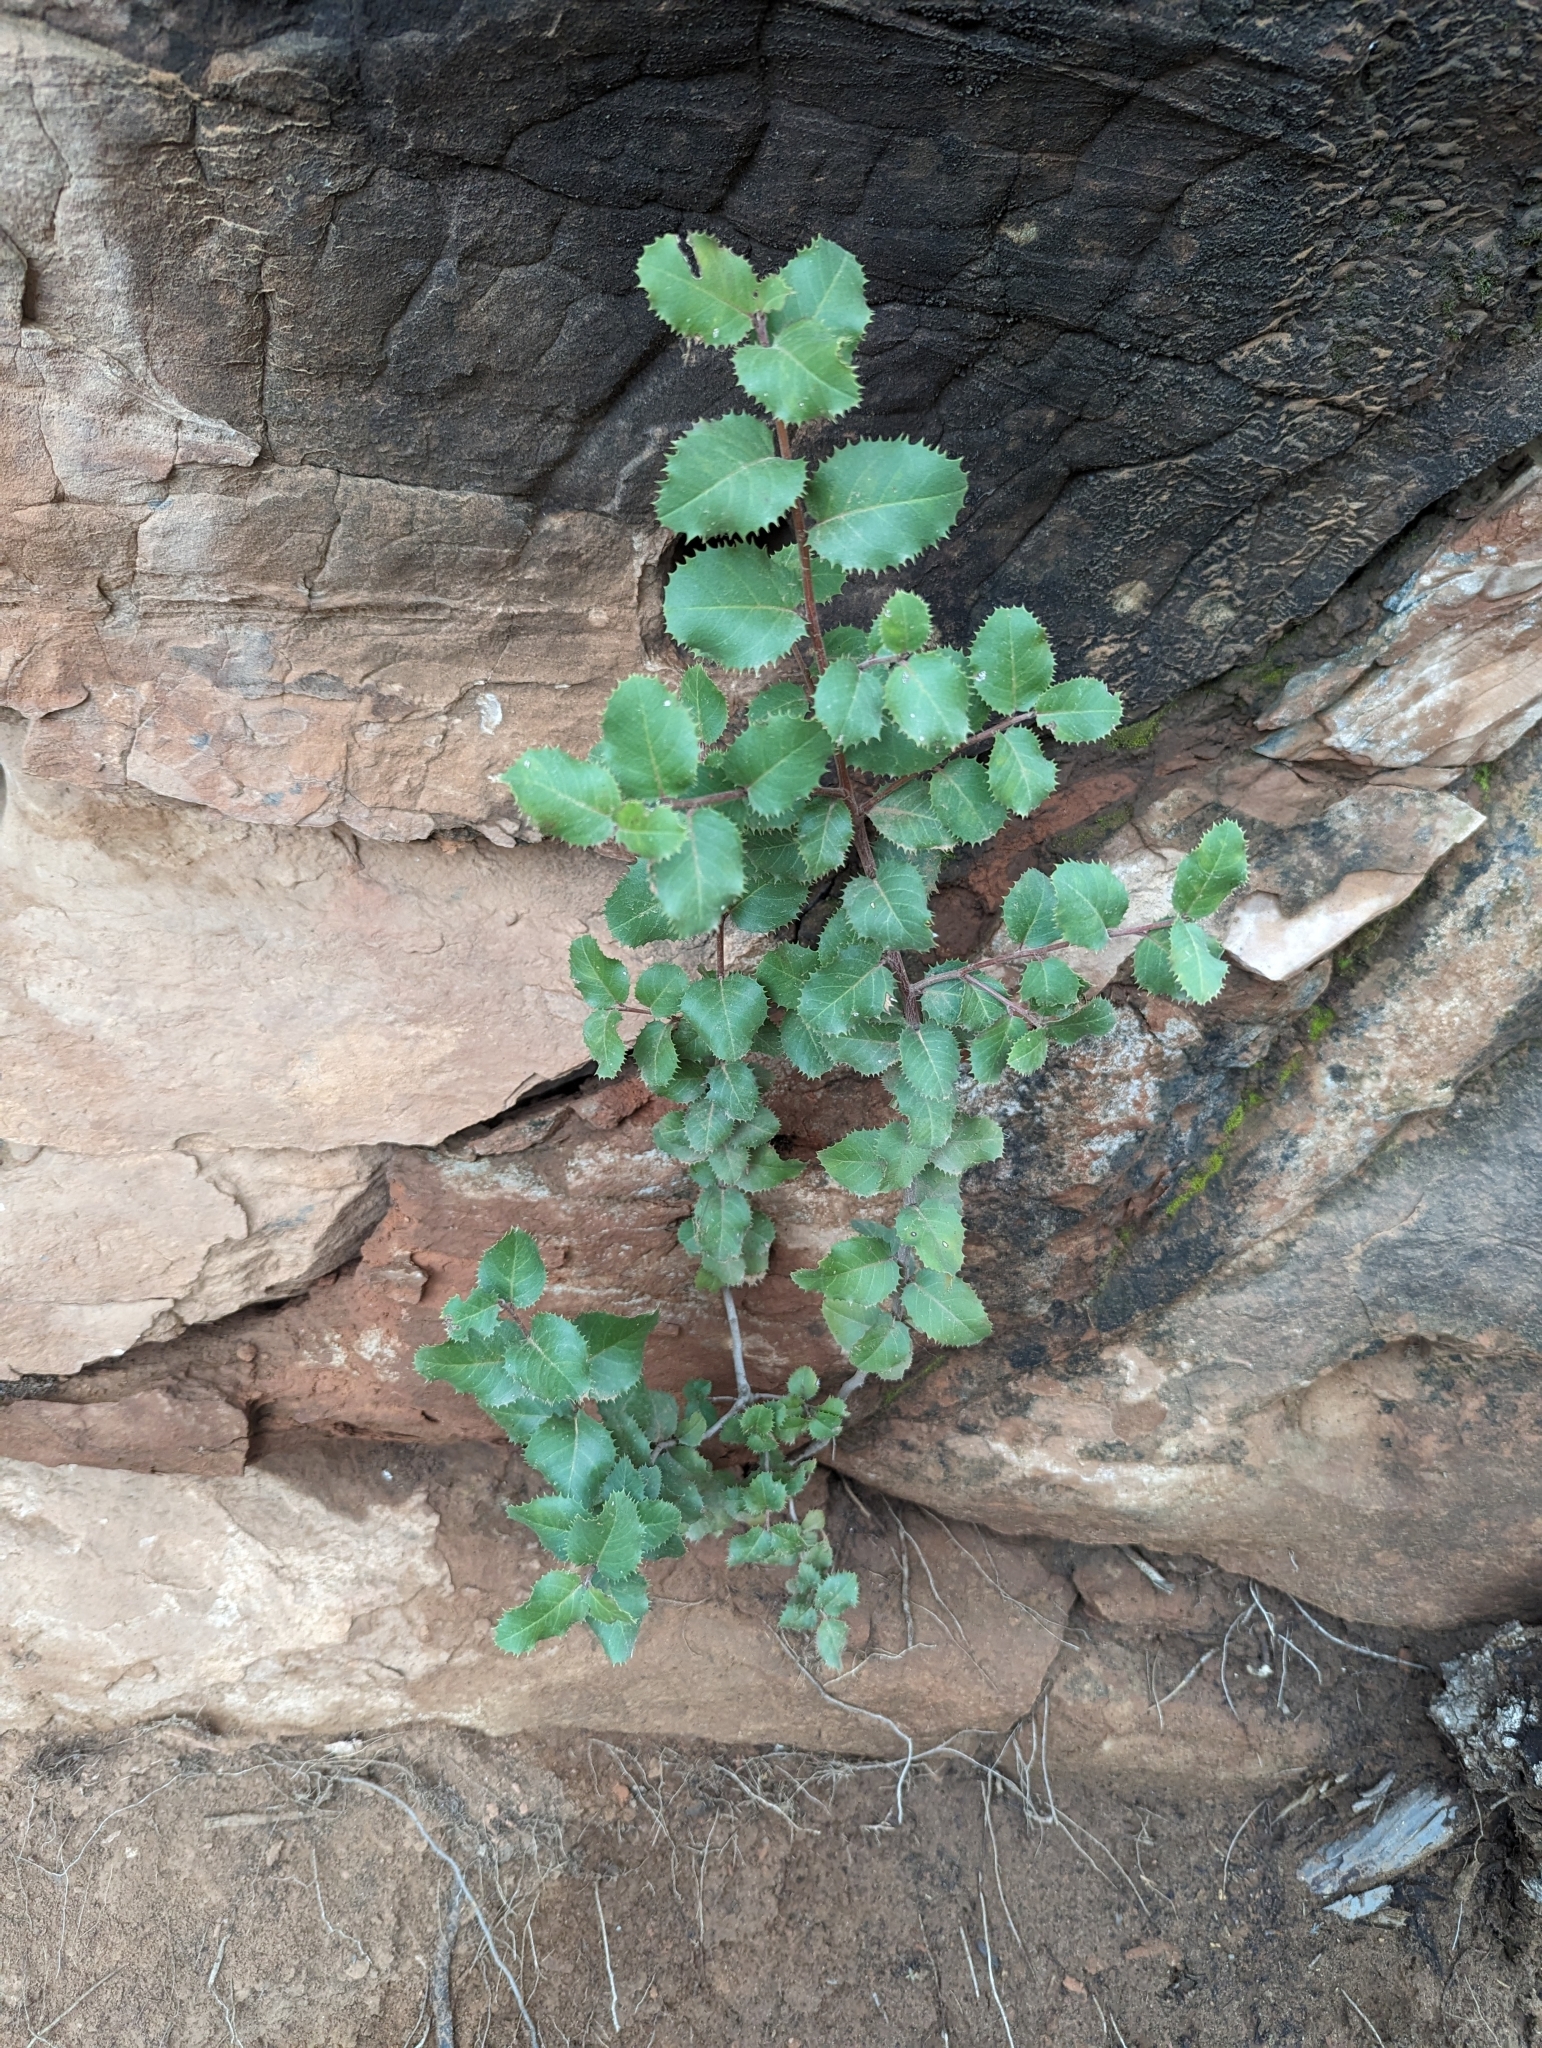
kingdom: Plantae
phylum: Tracheophyta
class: Magnoliopsida
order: Rosales
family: Rhamnaceae
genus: Endotropis
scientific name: Endotropis crocea
